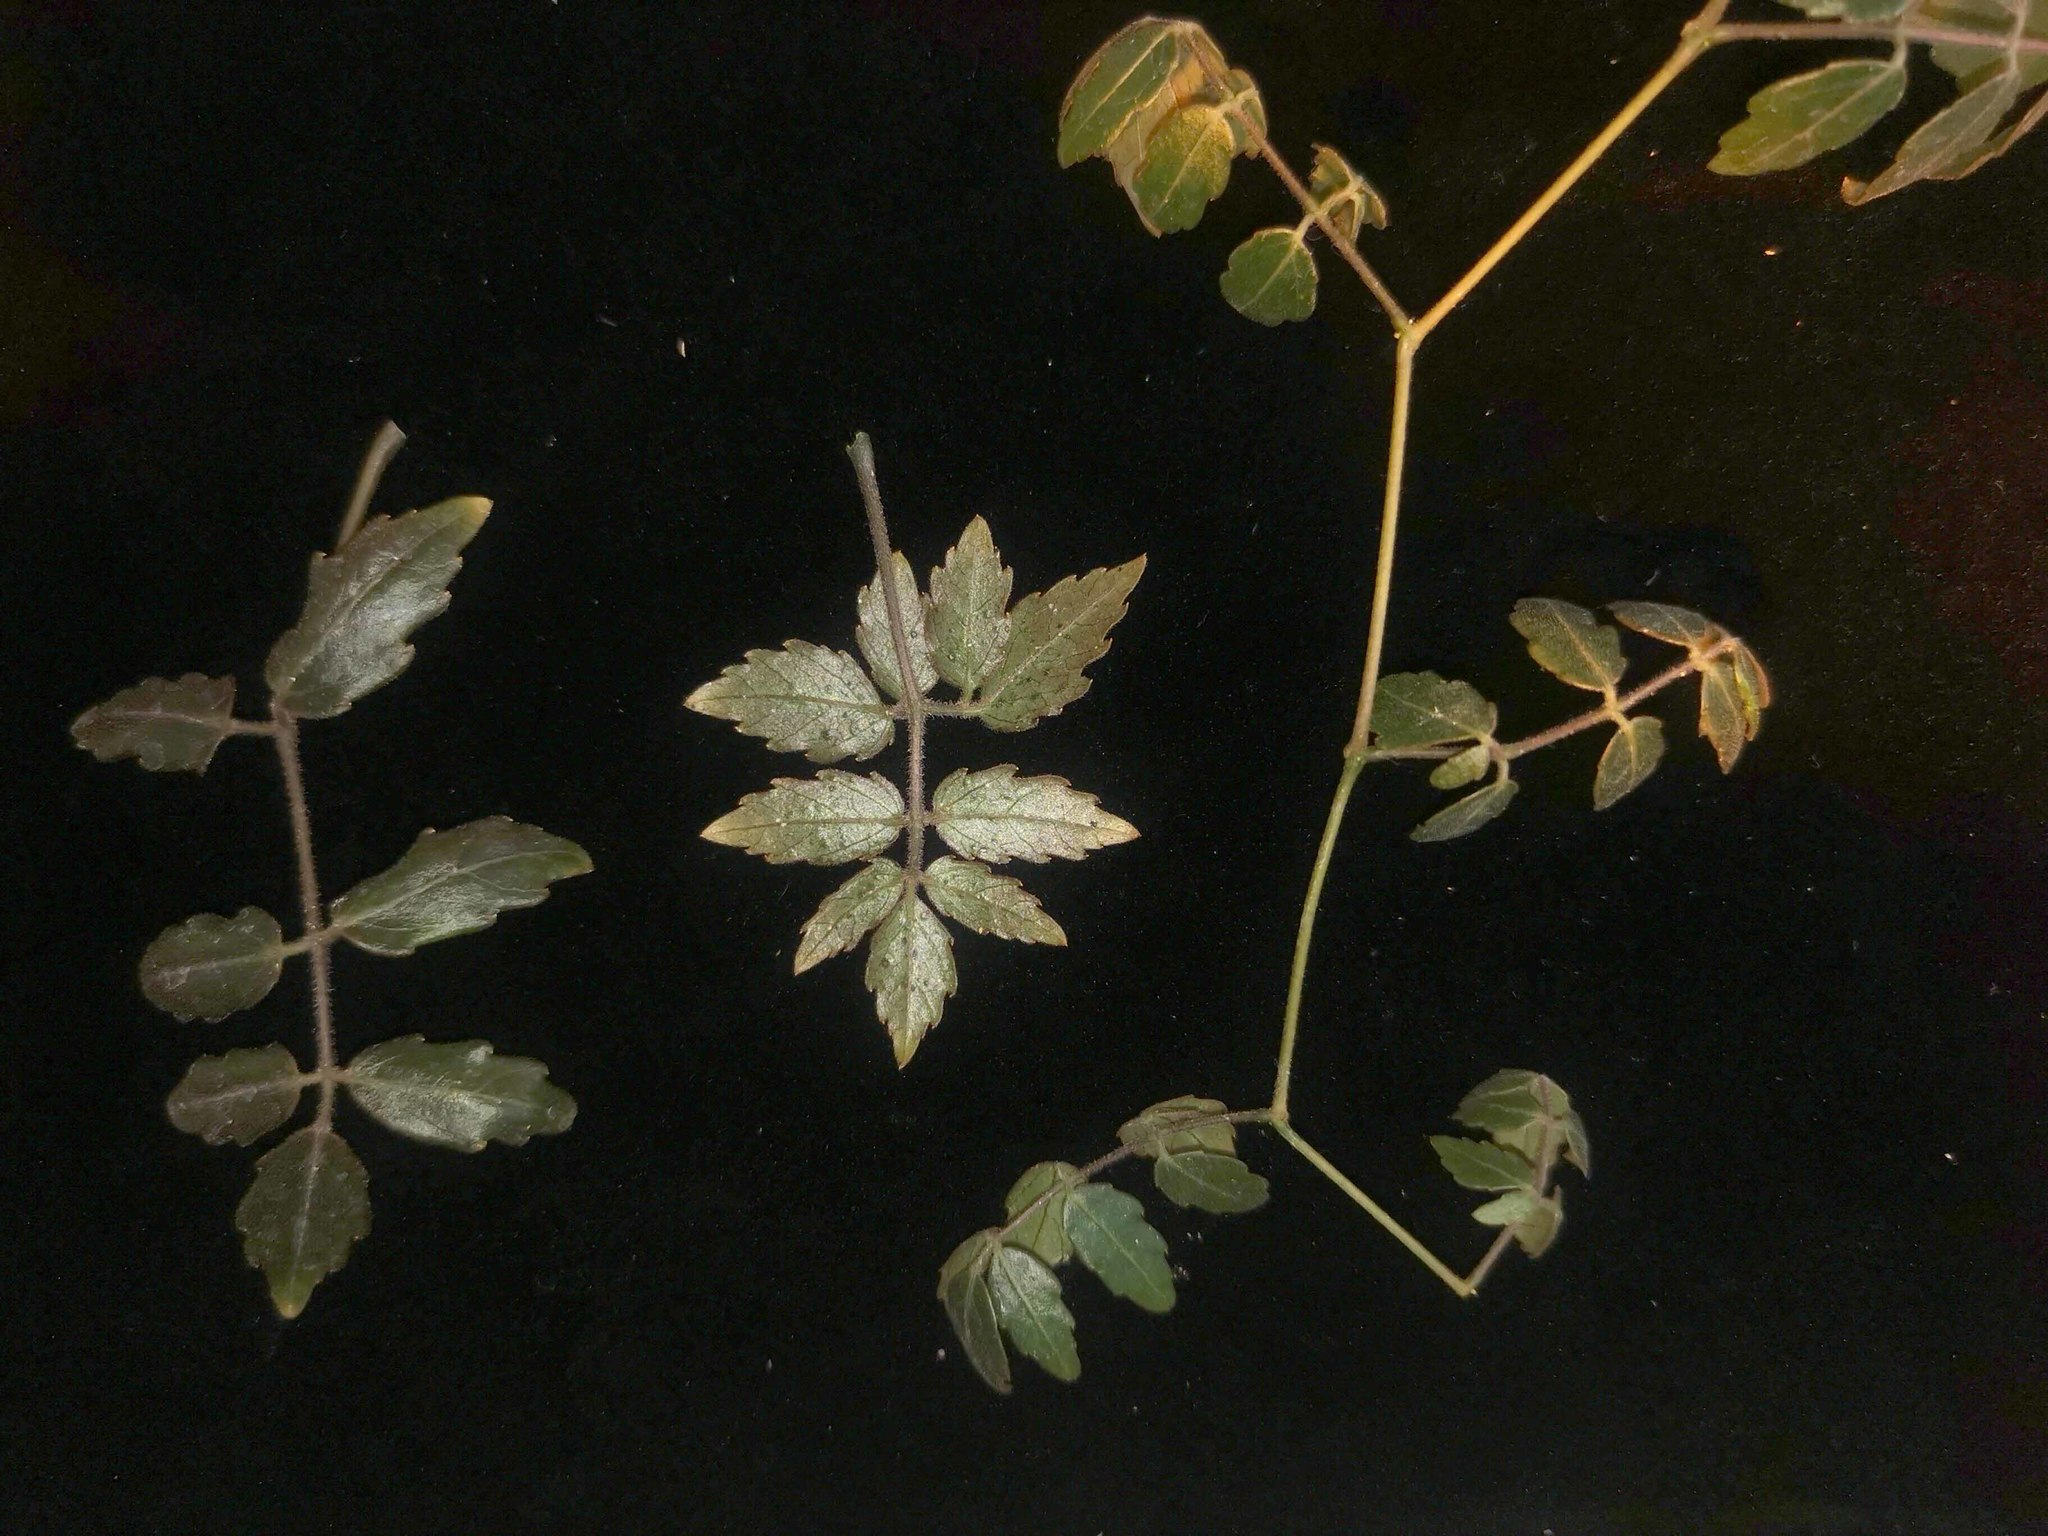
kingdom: Plantae
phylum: Tracheophyta
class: Magnoliopsida
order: Vitales
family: Vitaceae
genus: Cyphostemma
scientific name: Cyphostemma lazum
